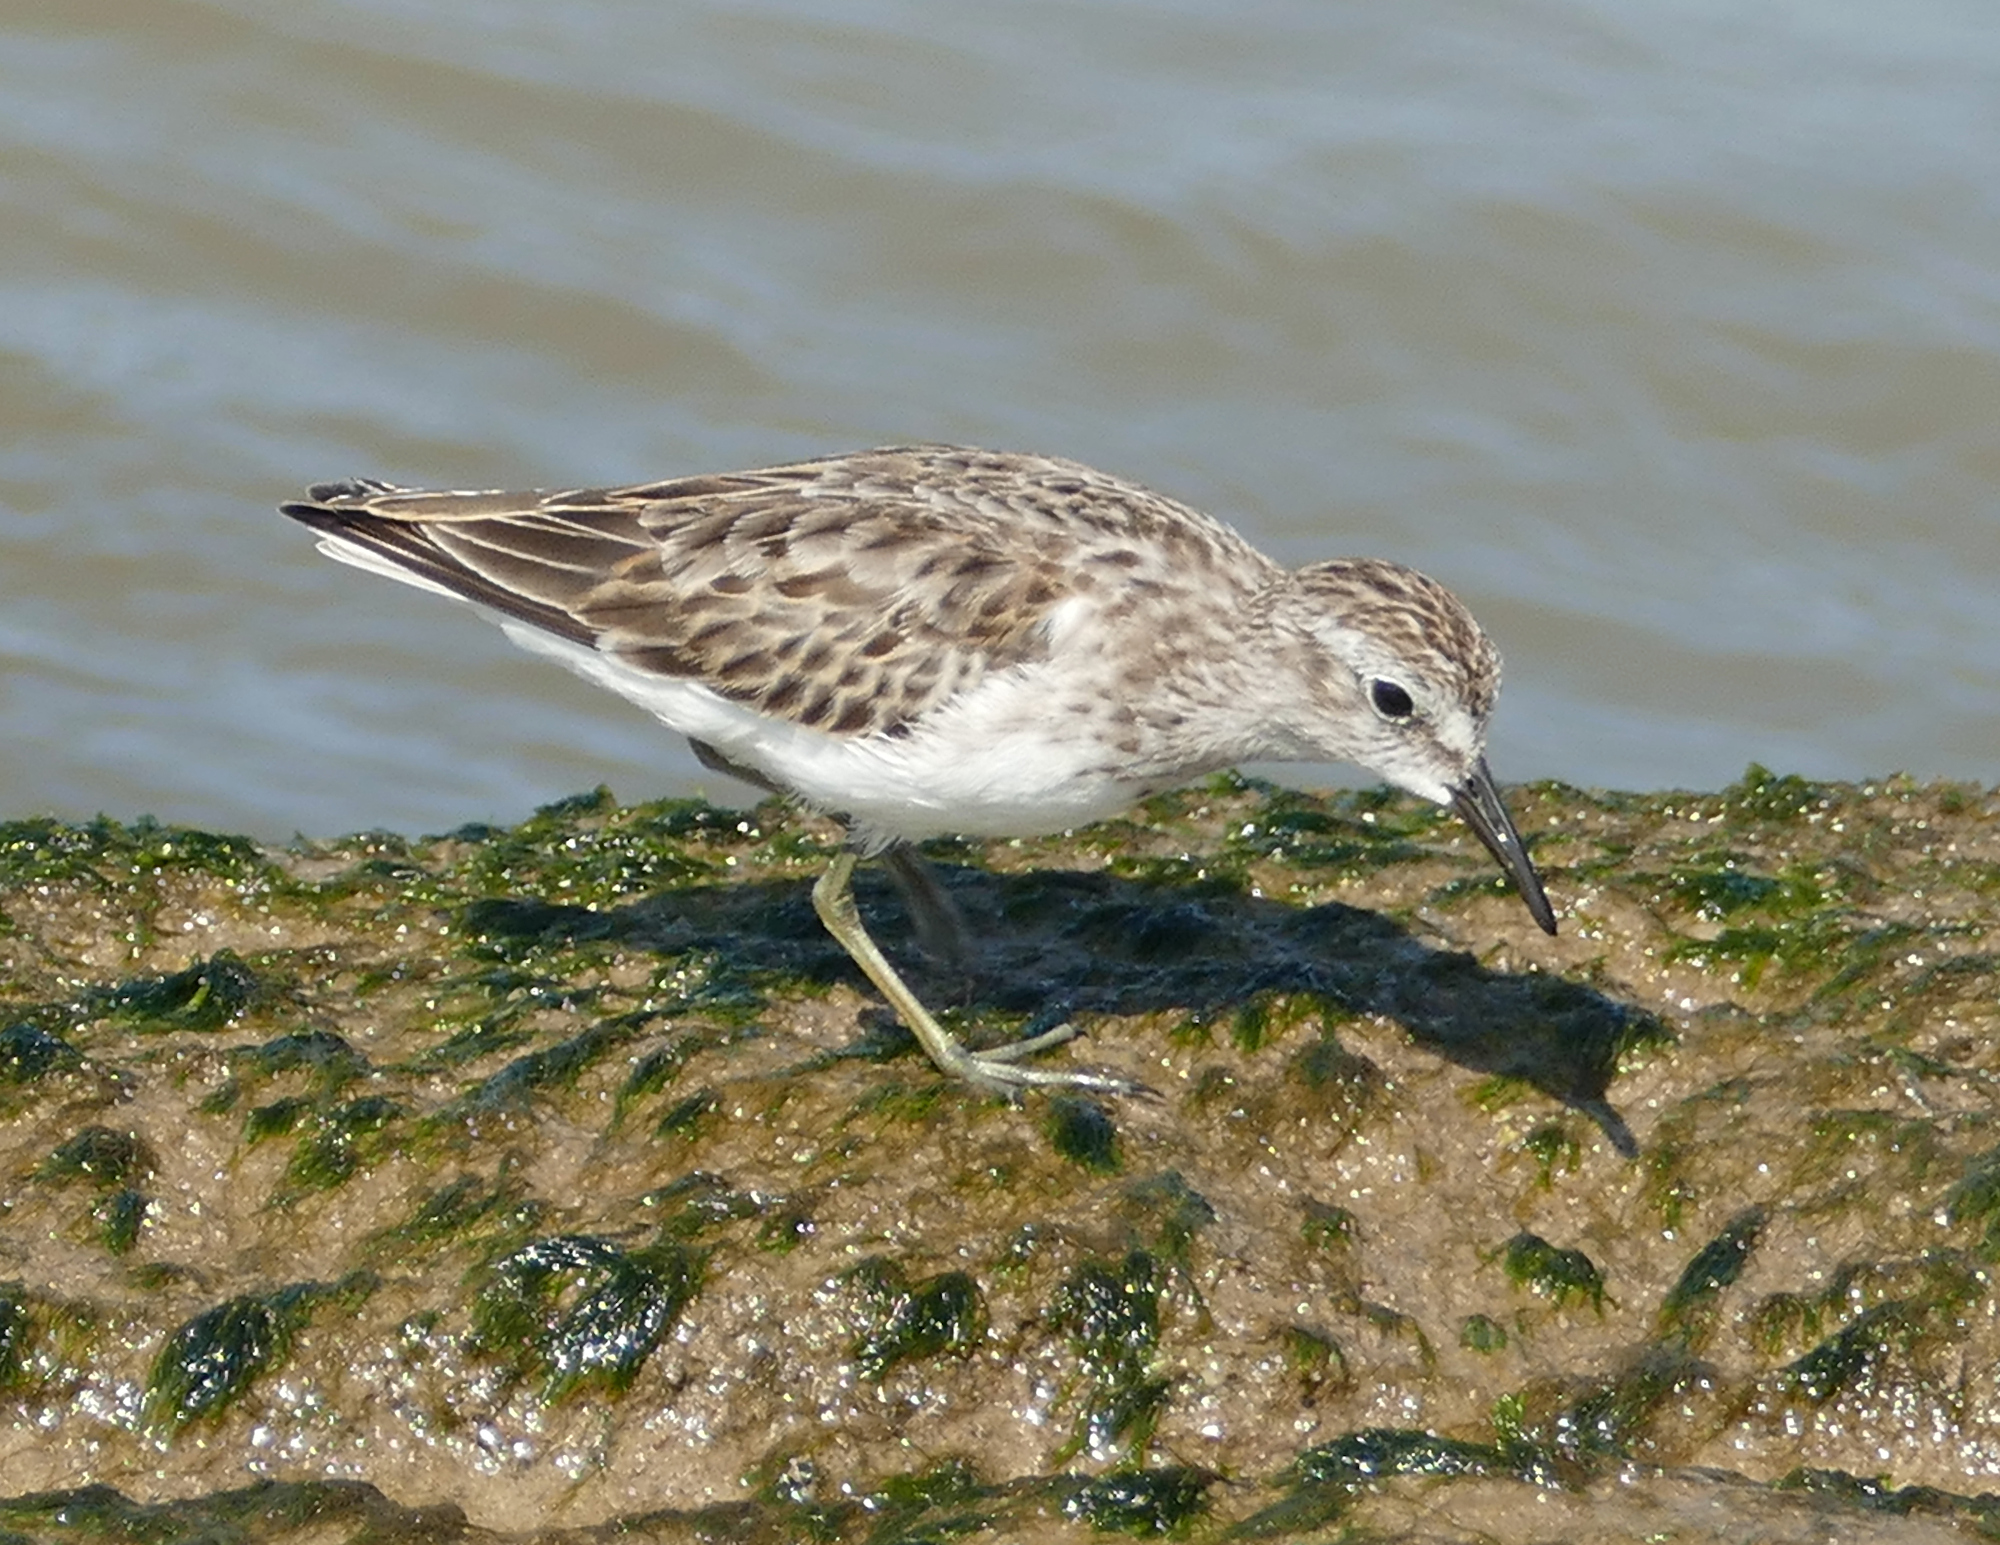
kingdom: Animalia
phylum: Chordata
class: Aves
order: Charadriiformes
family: Scolopacidae
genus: Calidris
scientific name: Calidris minutilla
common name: Least sandpiper
